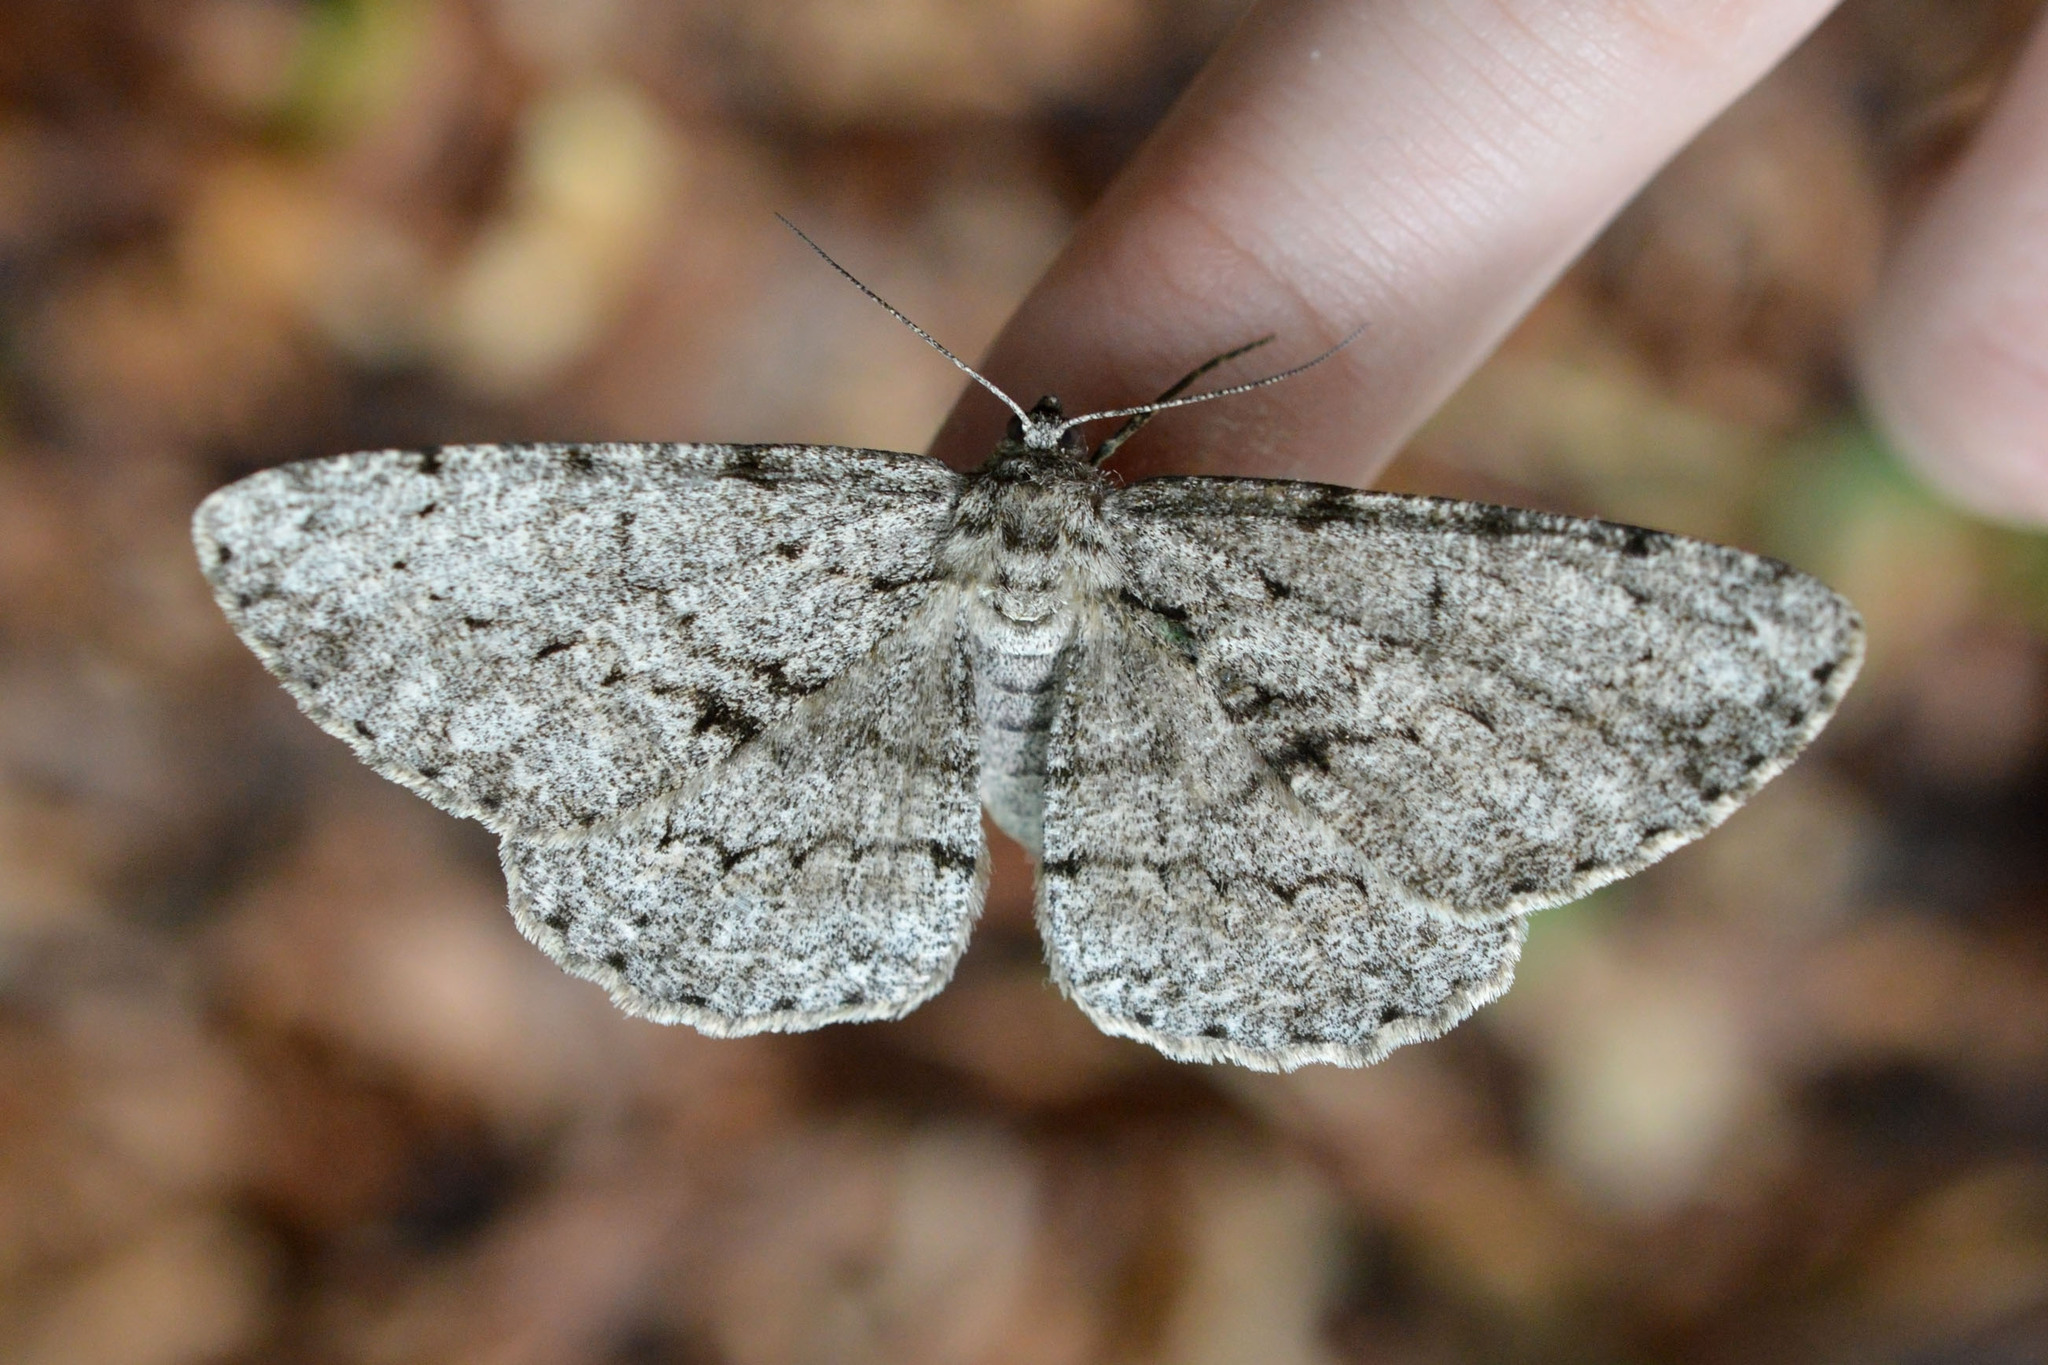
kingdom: Animalia
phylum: Arthropoda
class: Insecta
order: Lepidoptera
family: Geometridae
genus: Hypomecis
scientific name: Hypomecis roboraria
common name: Great oak beauty
